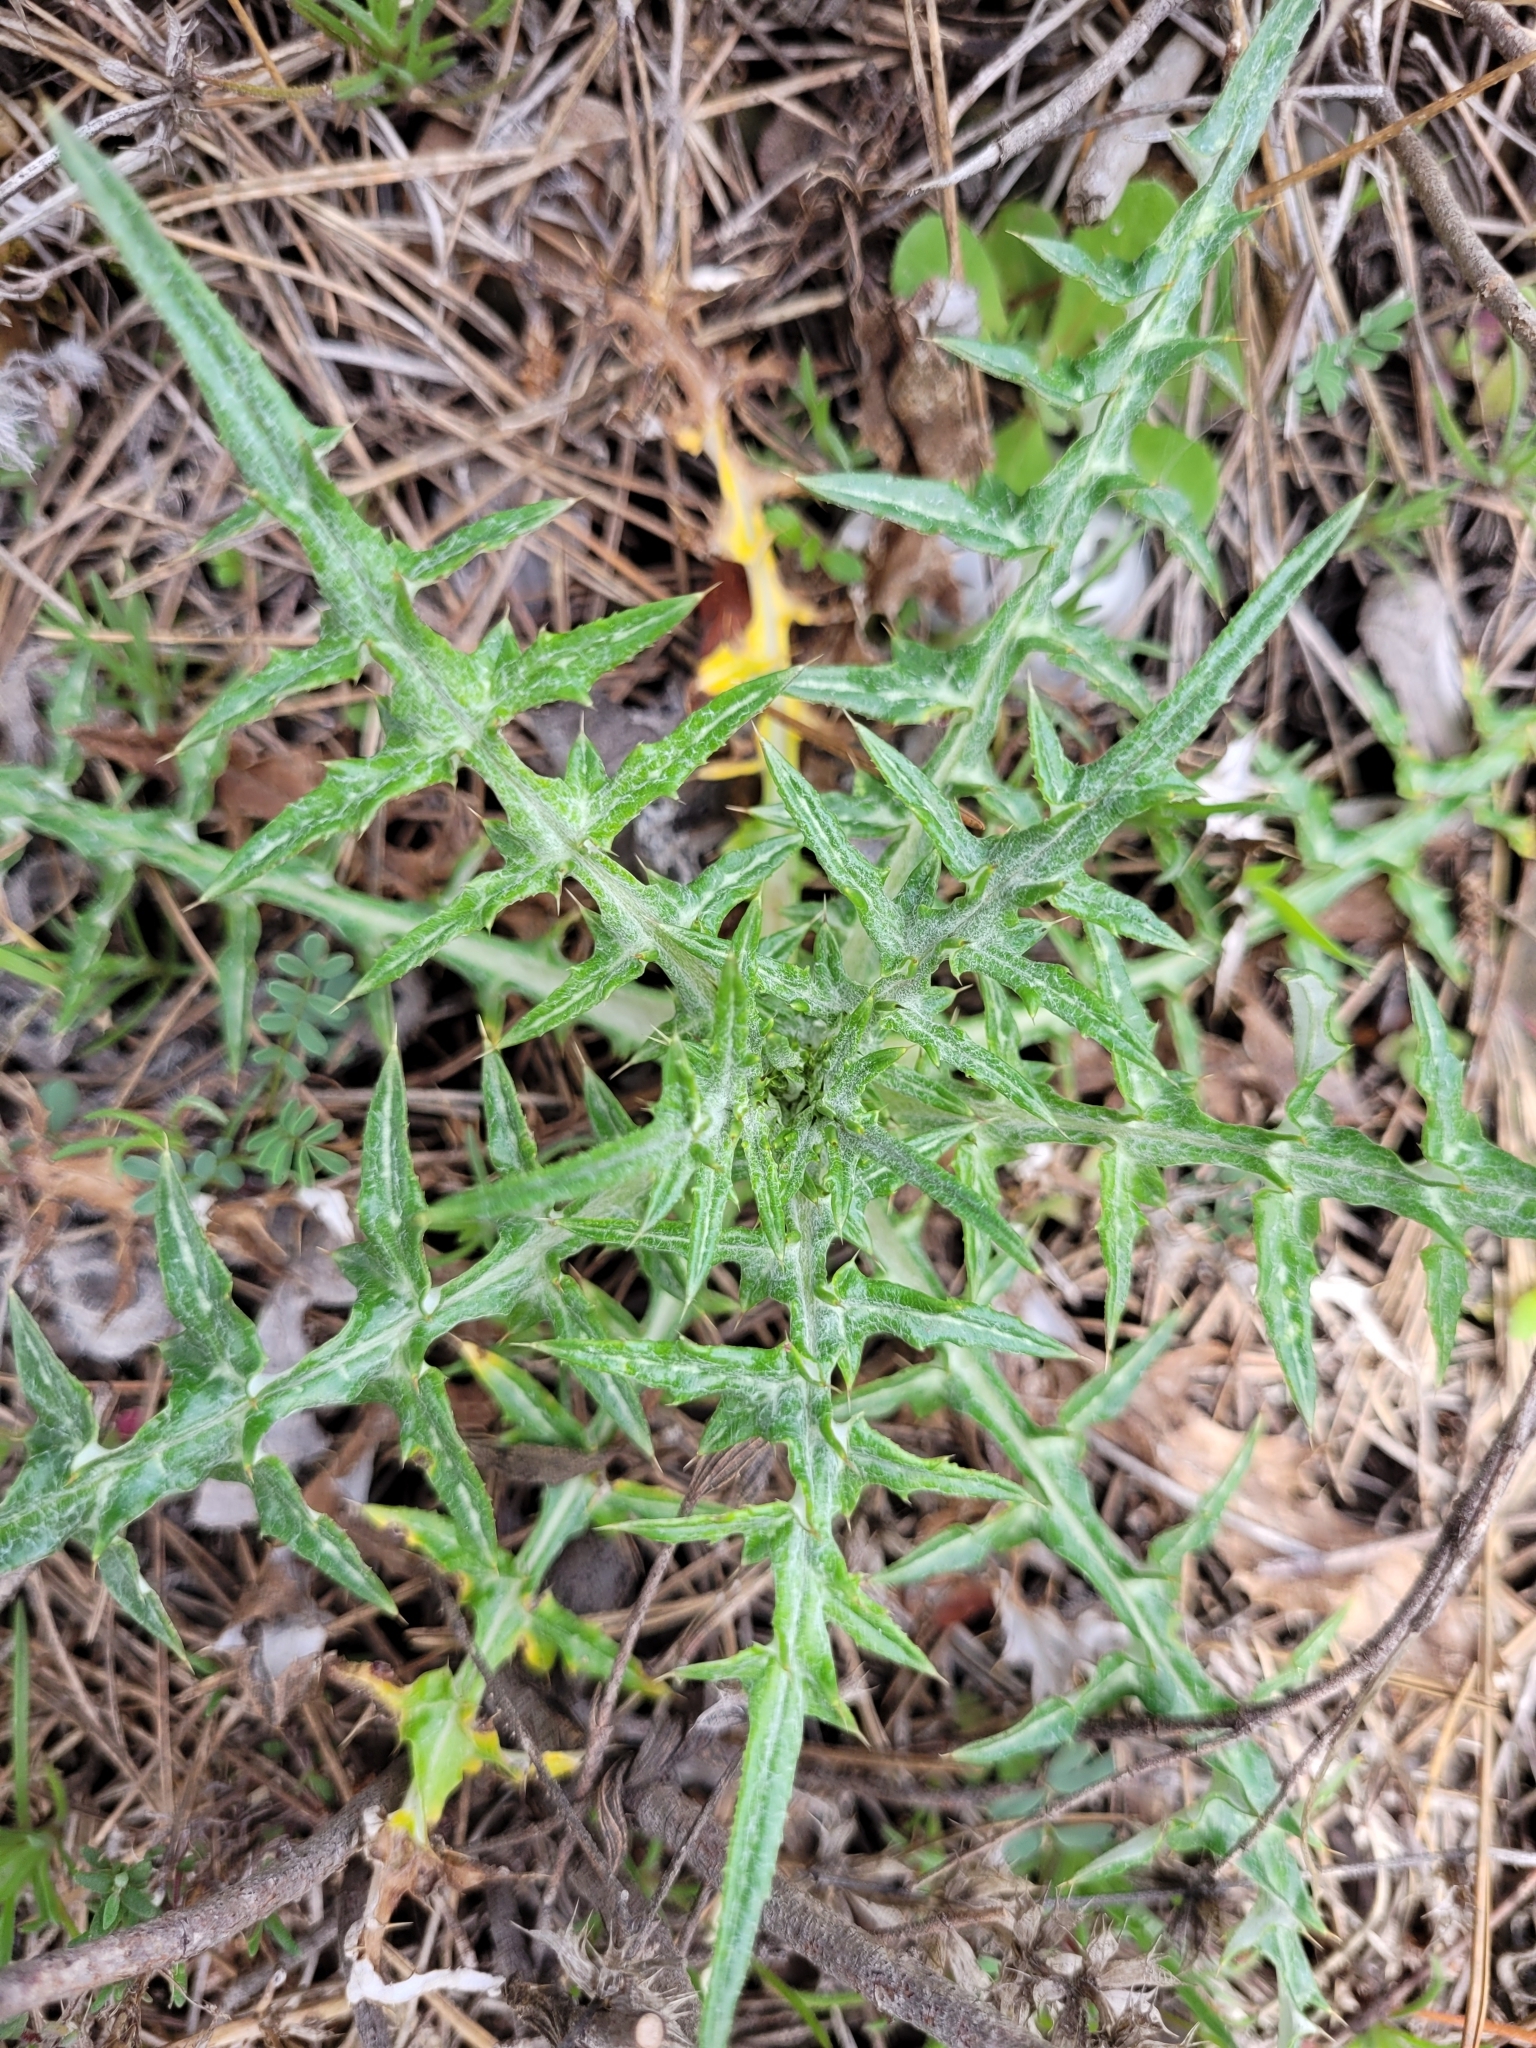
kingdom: Plantae
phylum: Tracheophyta
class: Magnoliopsida
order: Asterales
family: Asteraceae
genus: Galactites
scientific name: Galactites tomentosa
